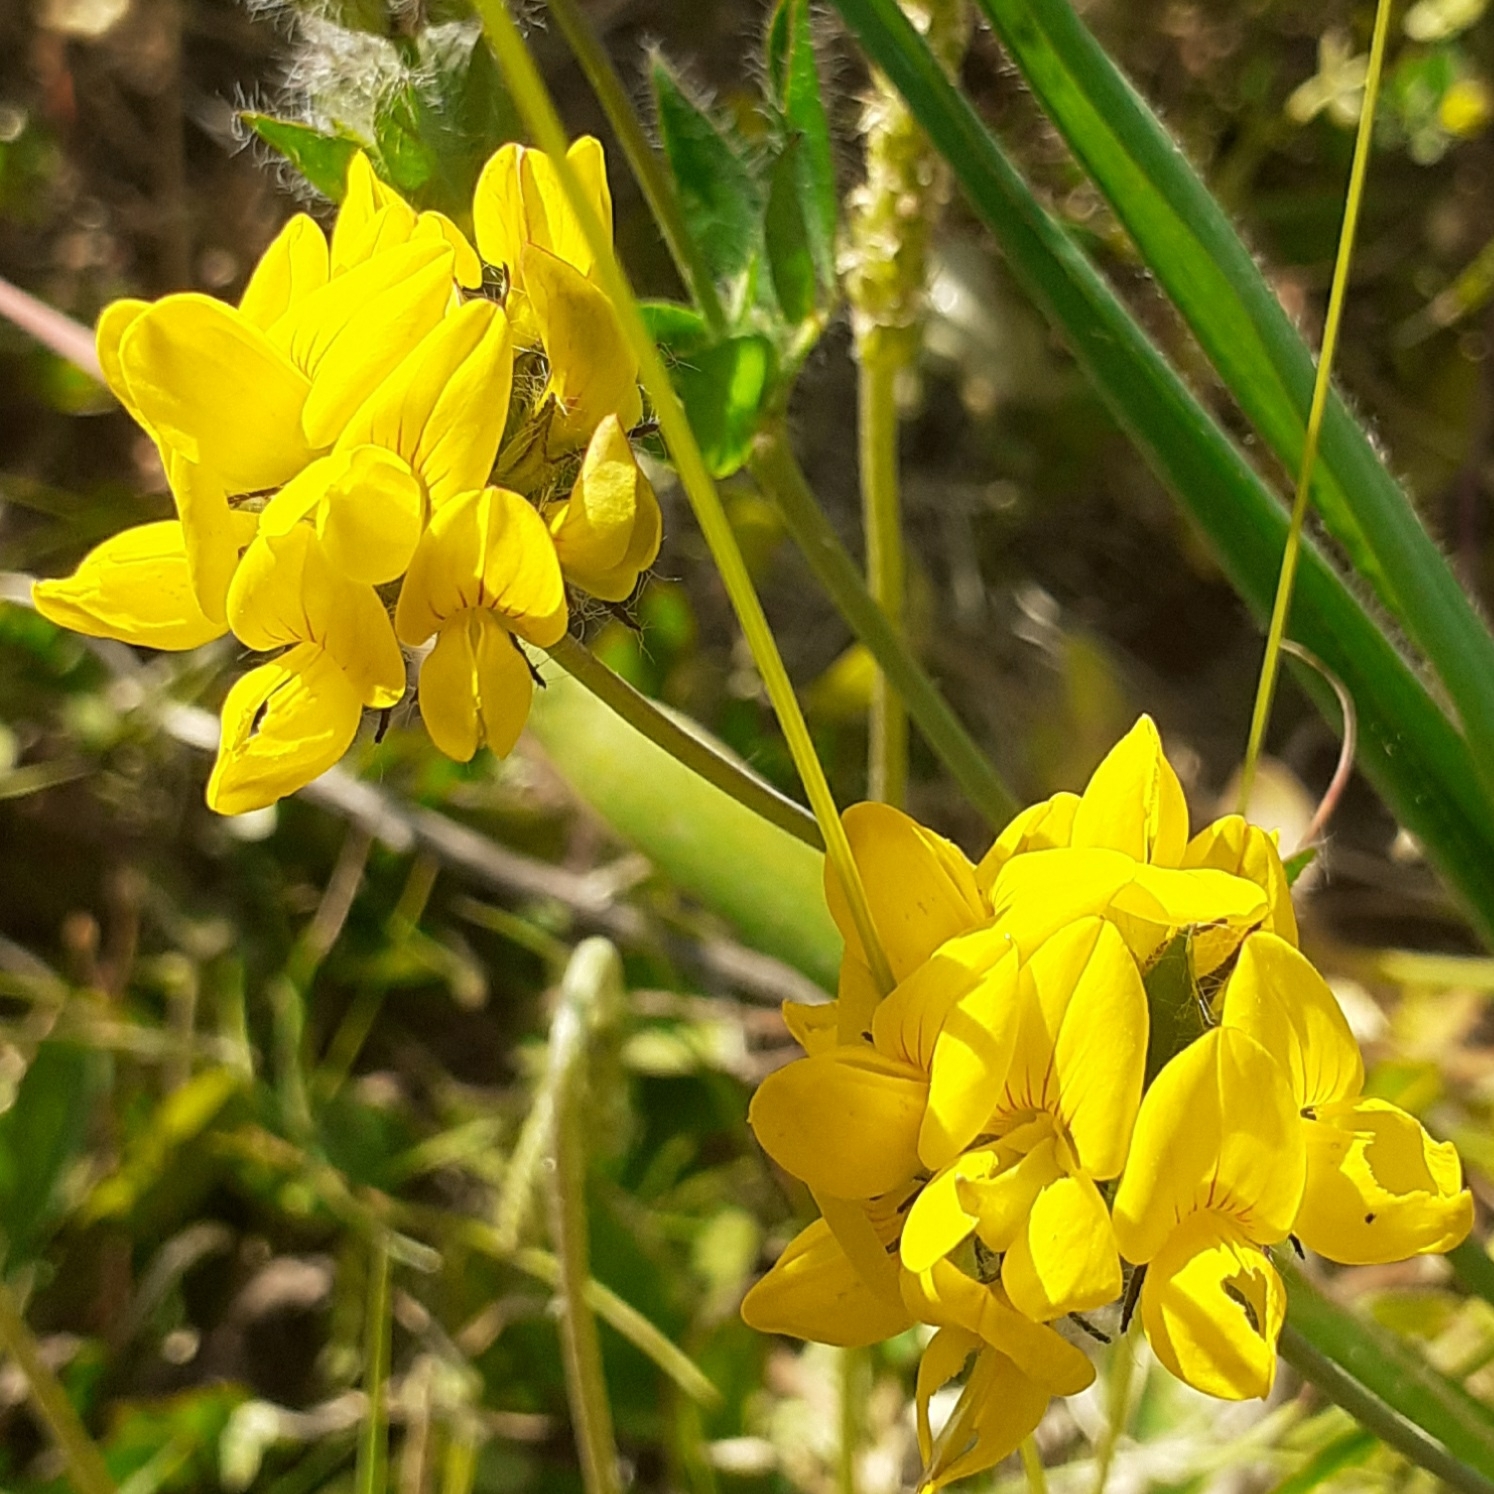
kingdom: Plantae
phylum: Tracheophyta
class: Magnoliopsida
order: Fabales
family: Fabaceae
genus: Lotus
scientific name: Lotus pedunculatus
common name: Greater birdsfoot-trefoil
